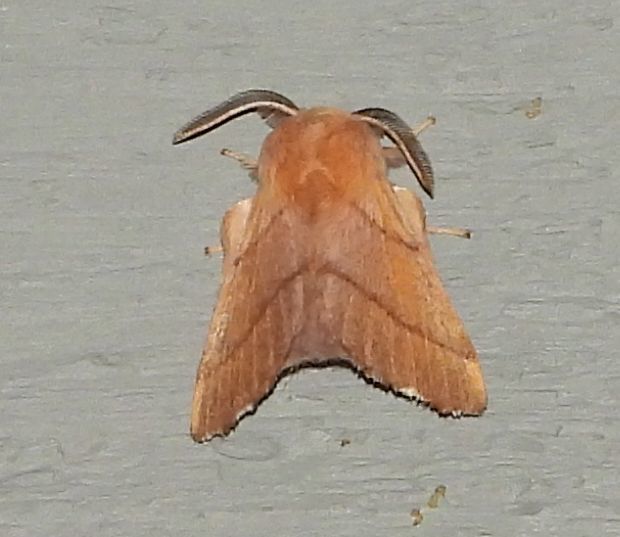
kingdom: Animalia
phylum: Arthropoda
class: Insecta
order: Lepidoptera
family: Lasiocampidae
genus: Malacosoma
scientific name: Malacosoma disstria
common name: Forest tent caterpillar
